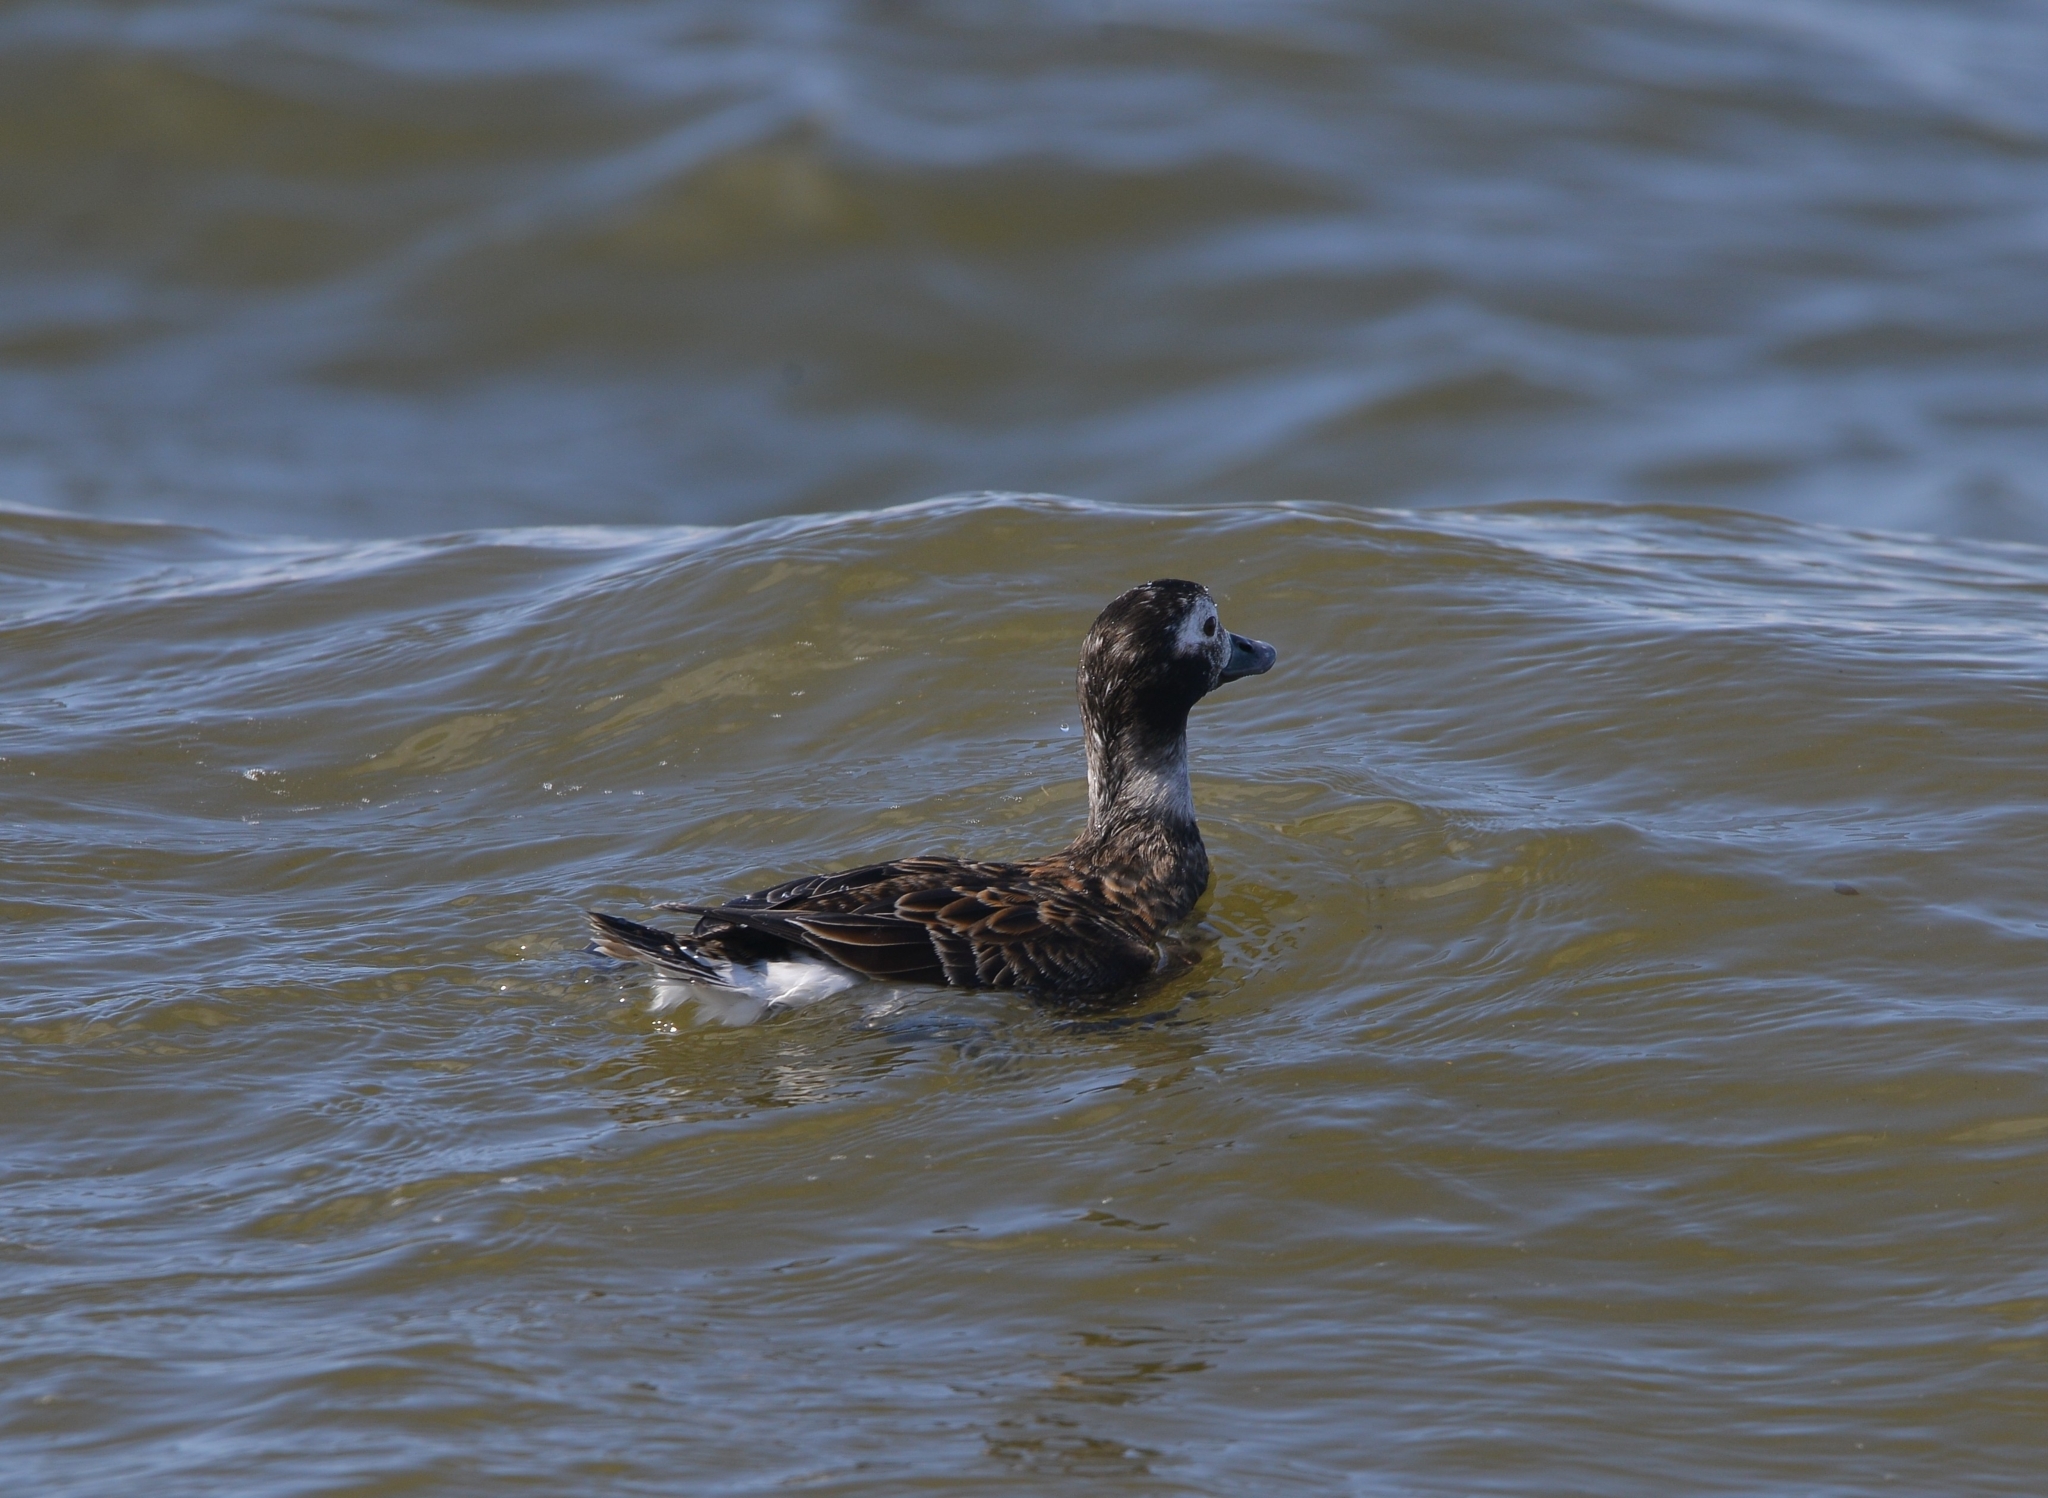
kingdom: Animalia
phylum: Chordata
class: Aves
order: Anseriformes
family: Anatidae
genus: Clangula
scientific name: Clangula hyemalis
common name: Long-tailed duck
